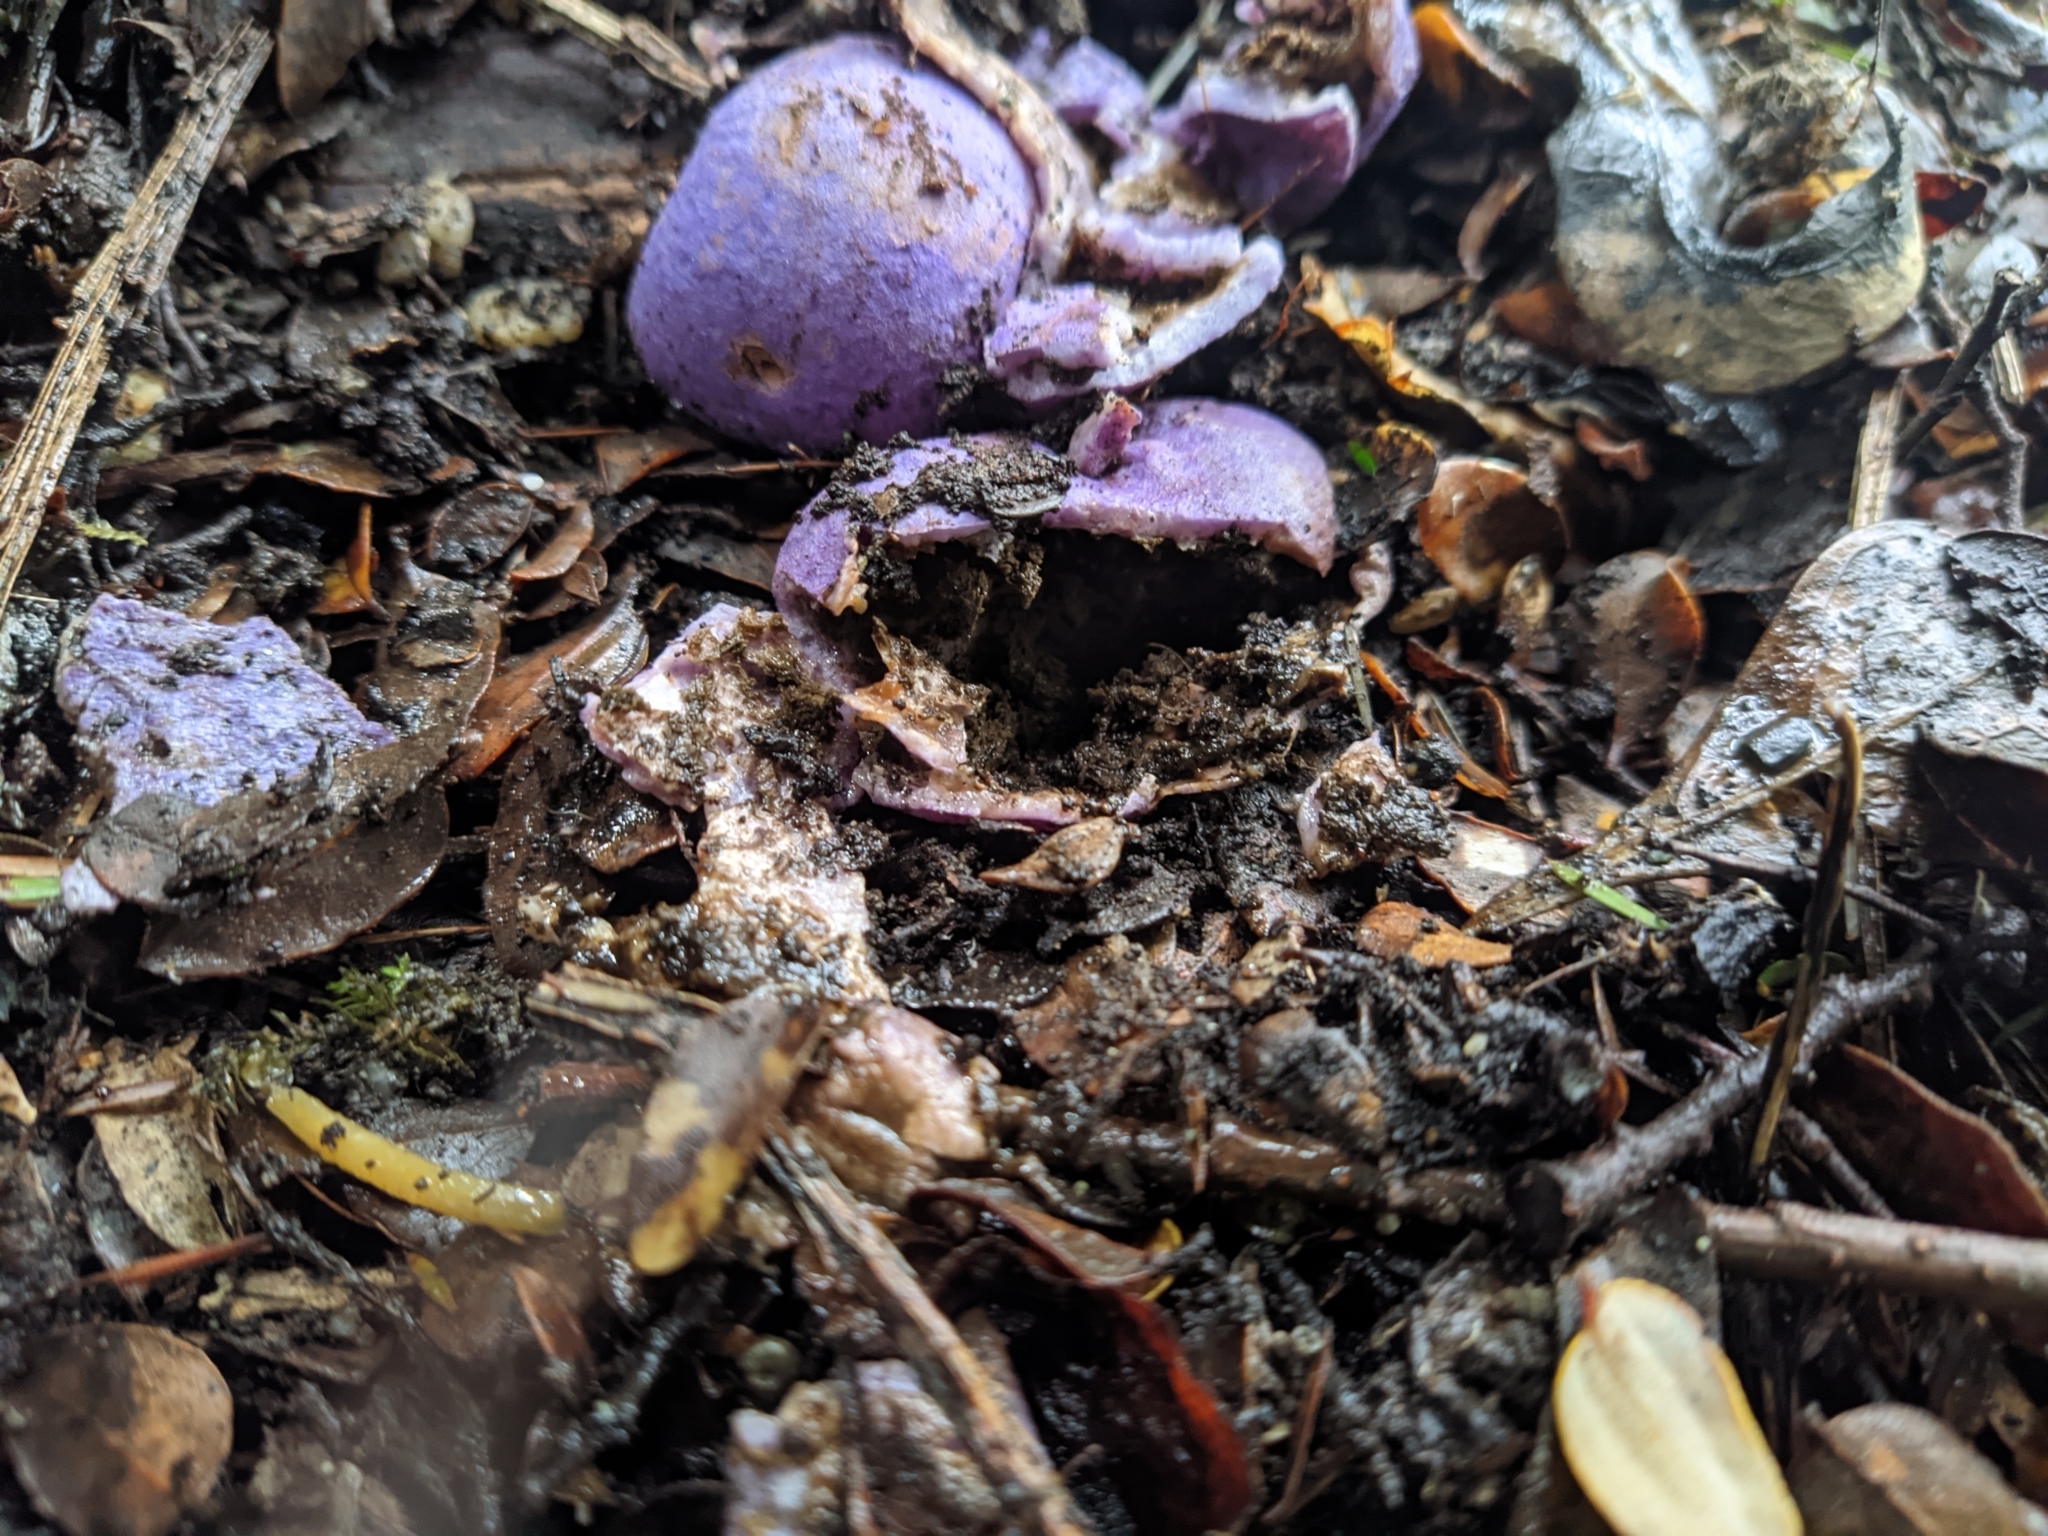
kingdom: Fungi
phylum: Basidiomycota
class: Agaricomycetes
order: Hysterangiales
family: Gallaceaceae
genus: Gallacea
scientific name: Gallacea scleroderma
